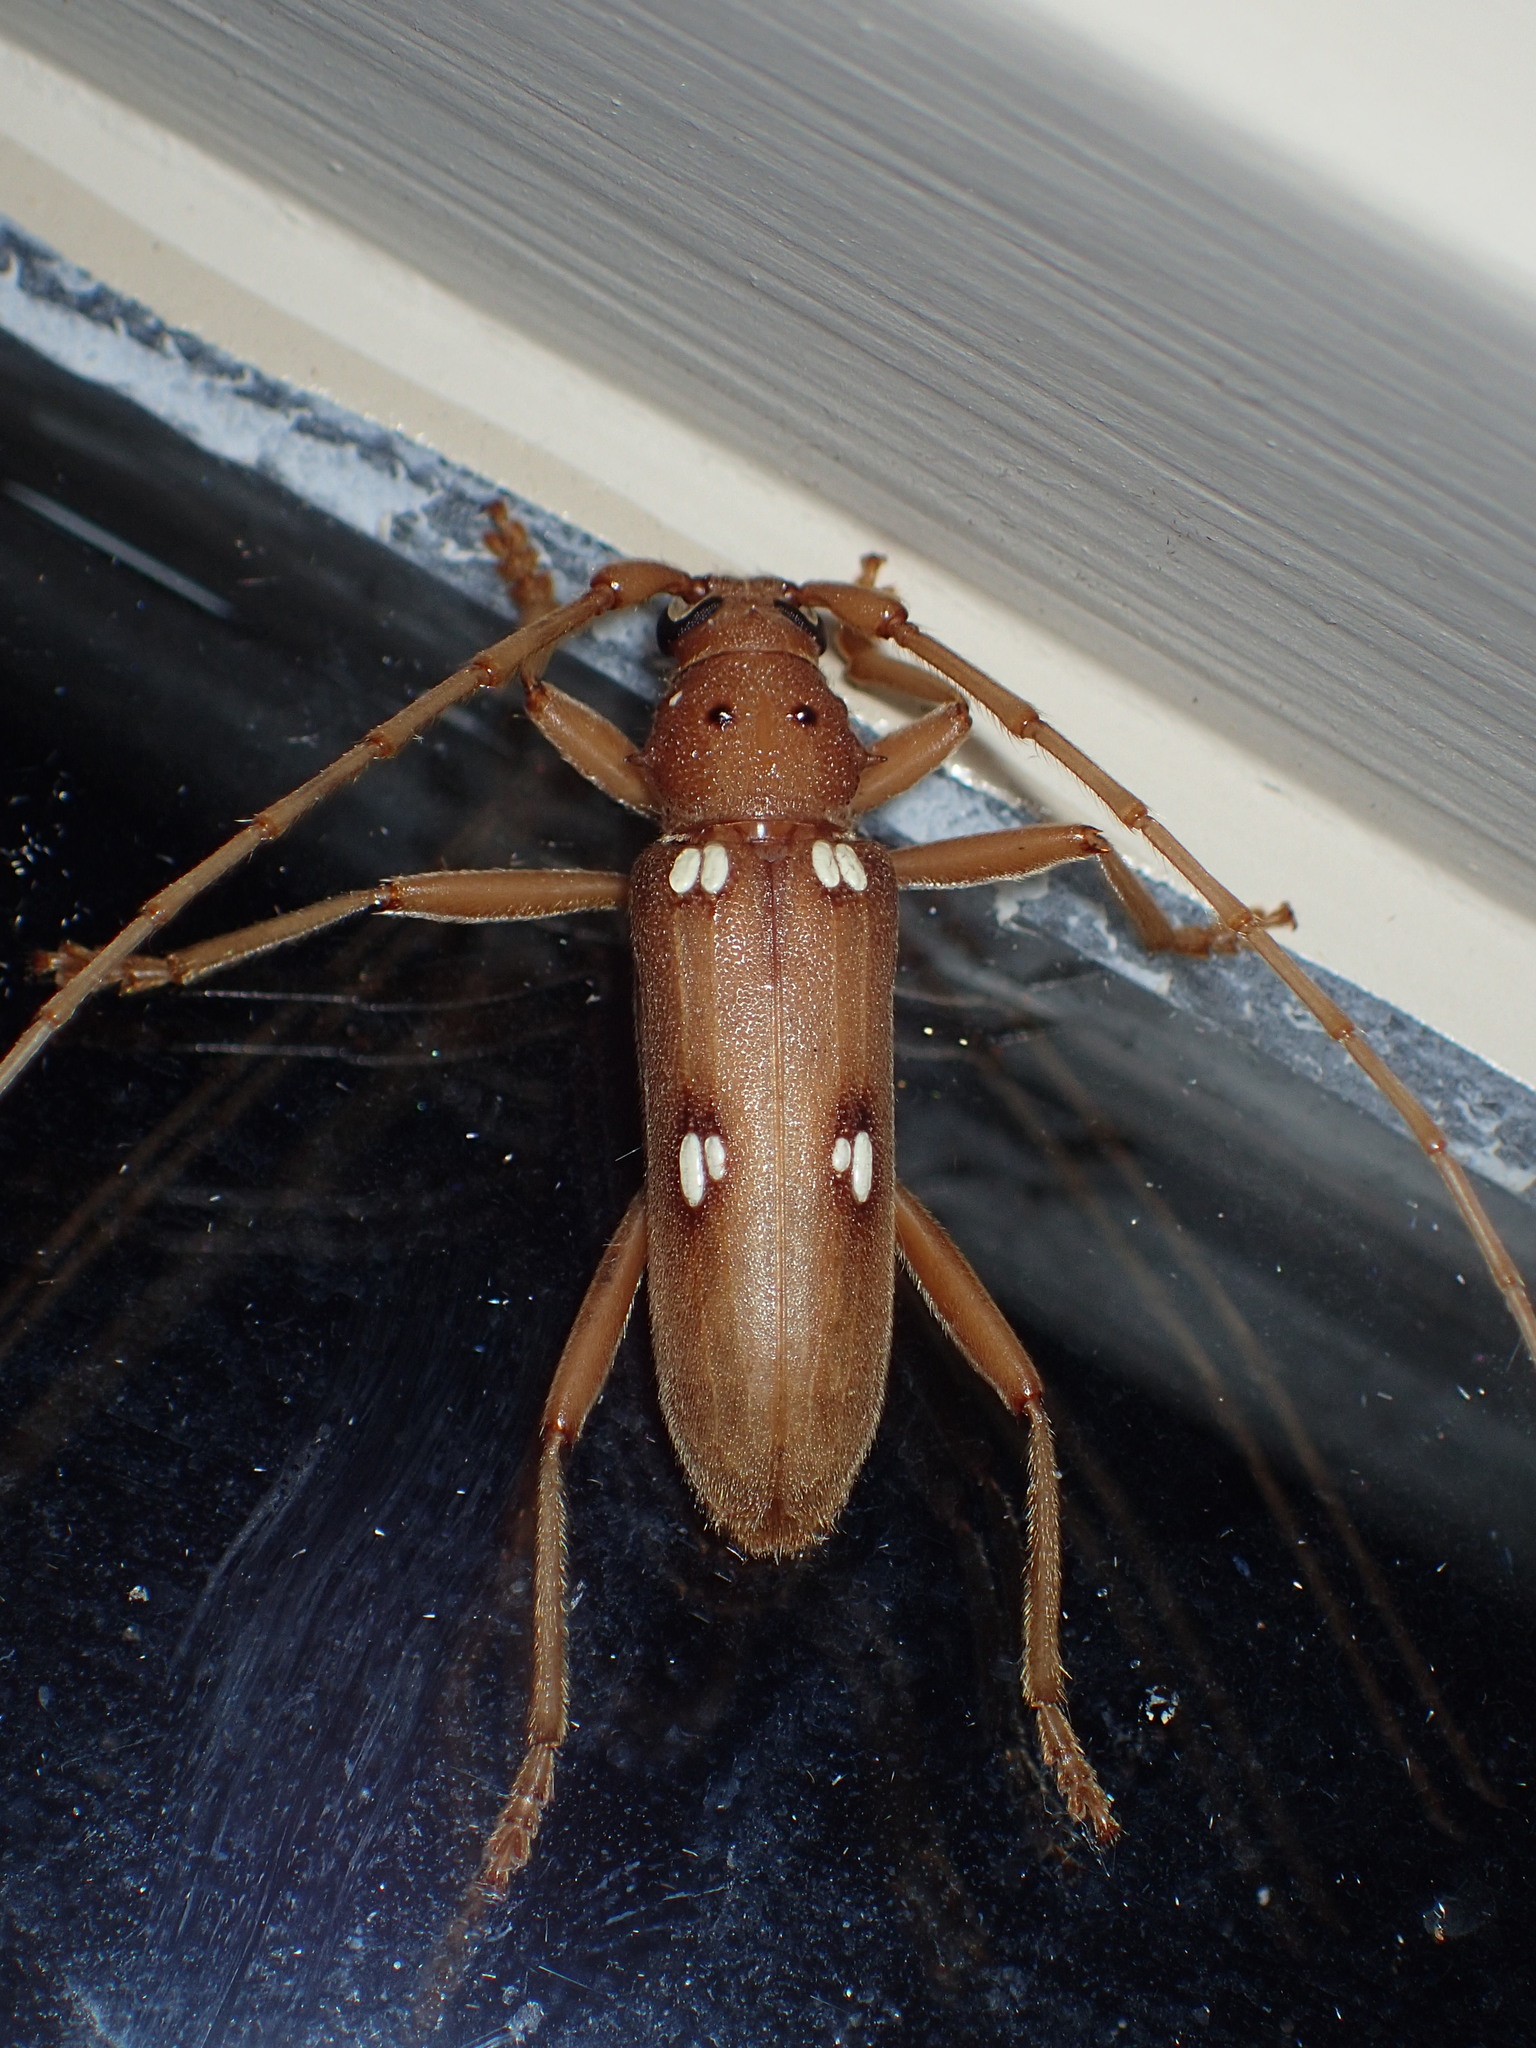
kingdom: Animalia
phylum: Arthropoda
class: Insecta
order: Coleoptera
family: Cerambycidae
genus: Eburia
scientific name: Eburia quadrigeminata
